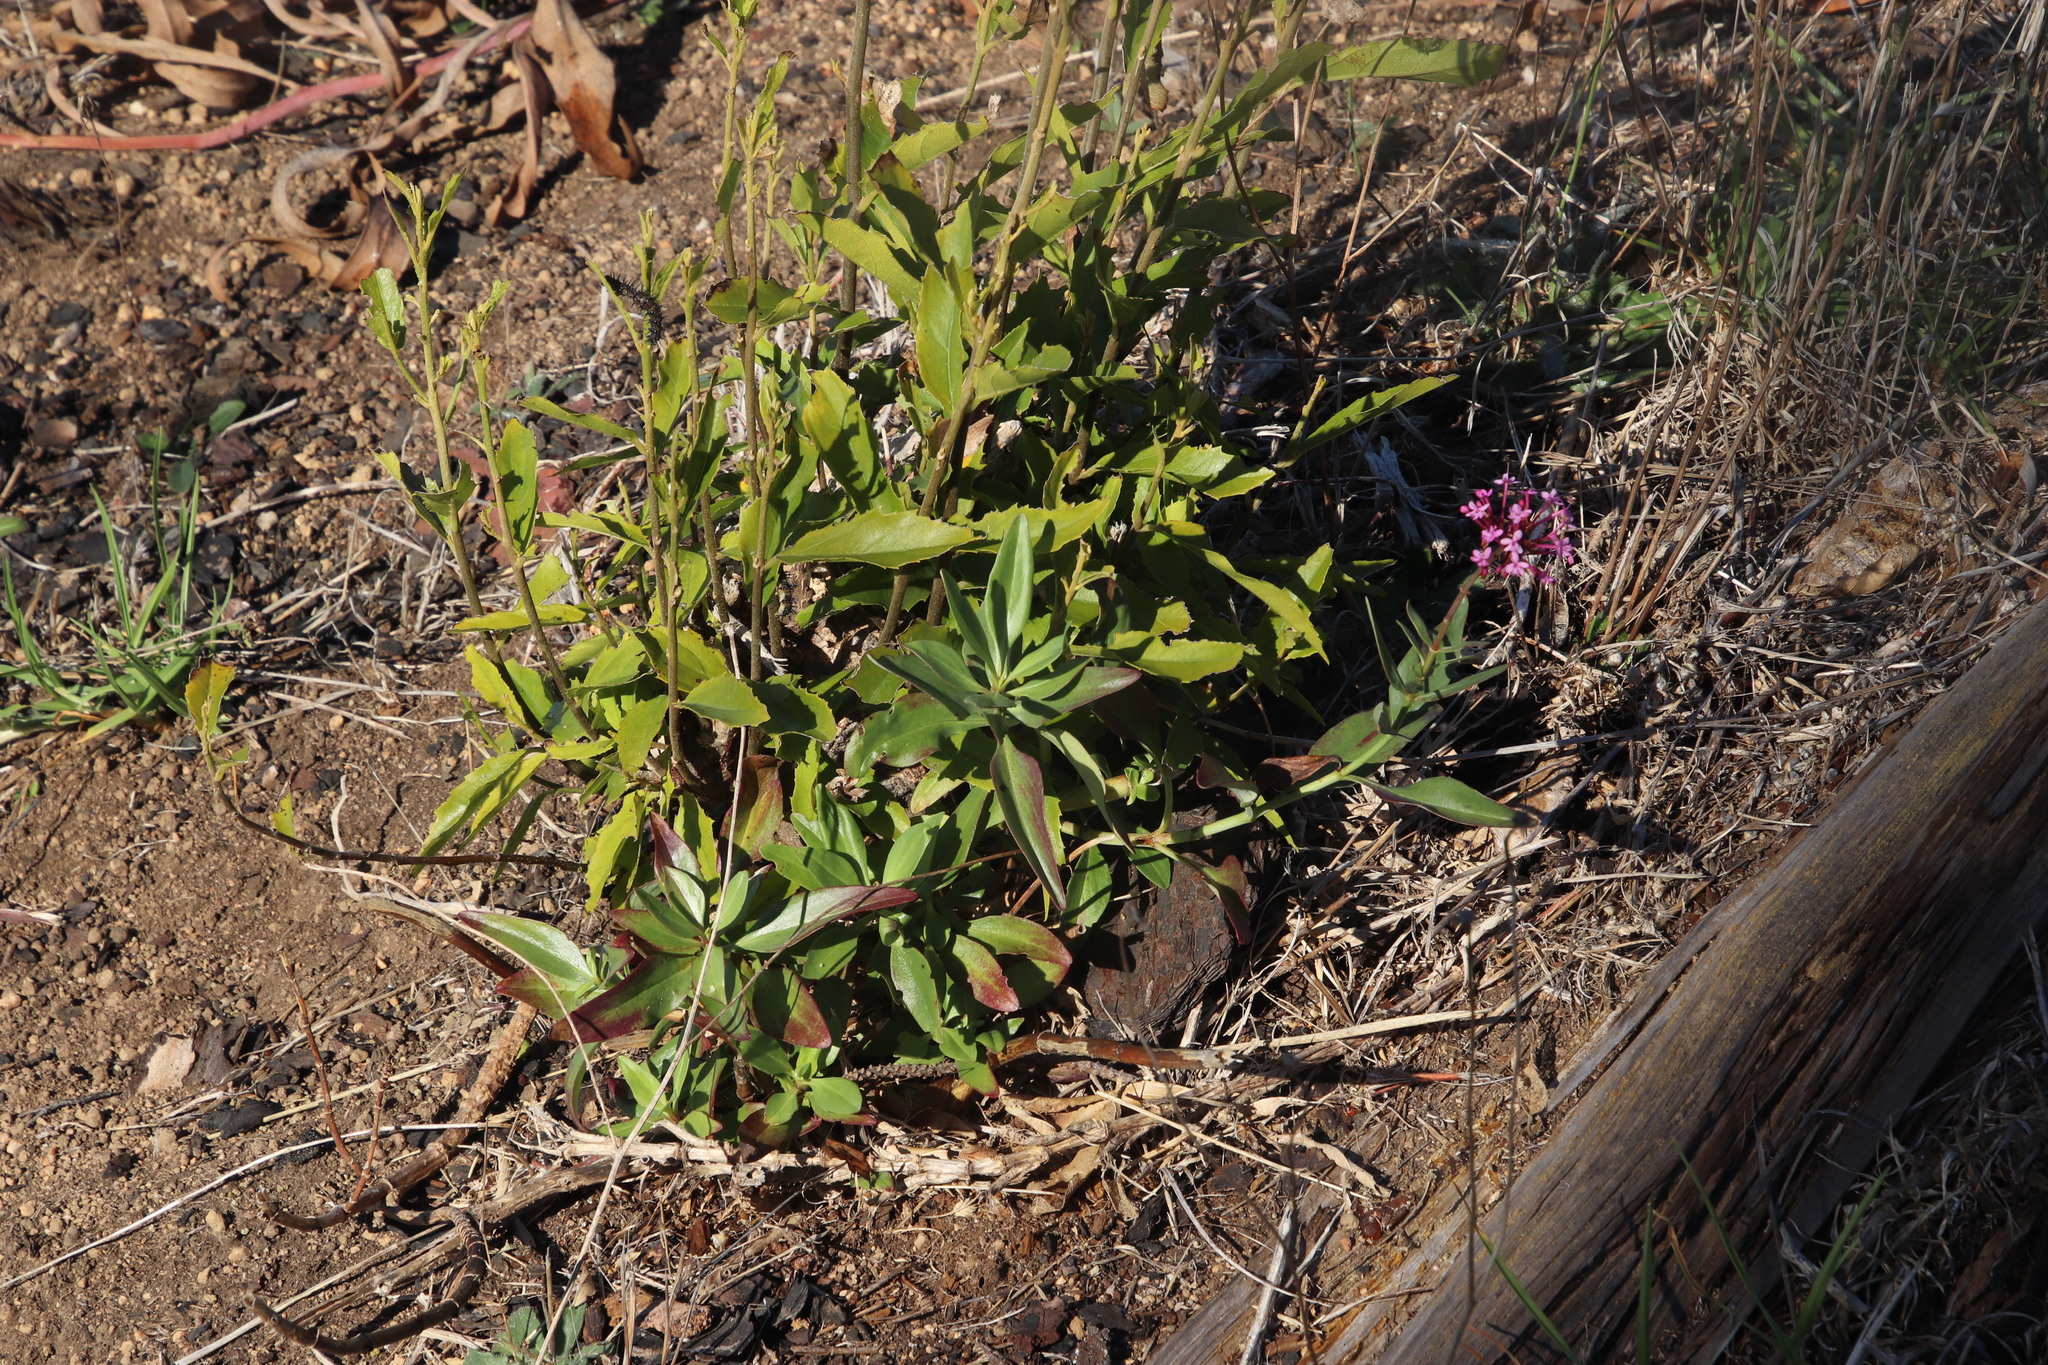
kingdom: Plantae
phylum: Tracheophyta
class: Magnoliopsida
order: Dipsacales
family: Caprifoliaceae
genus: Centranthus
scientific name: Centranthus ruber
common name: Red valerian
